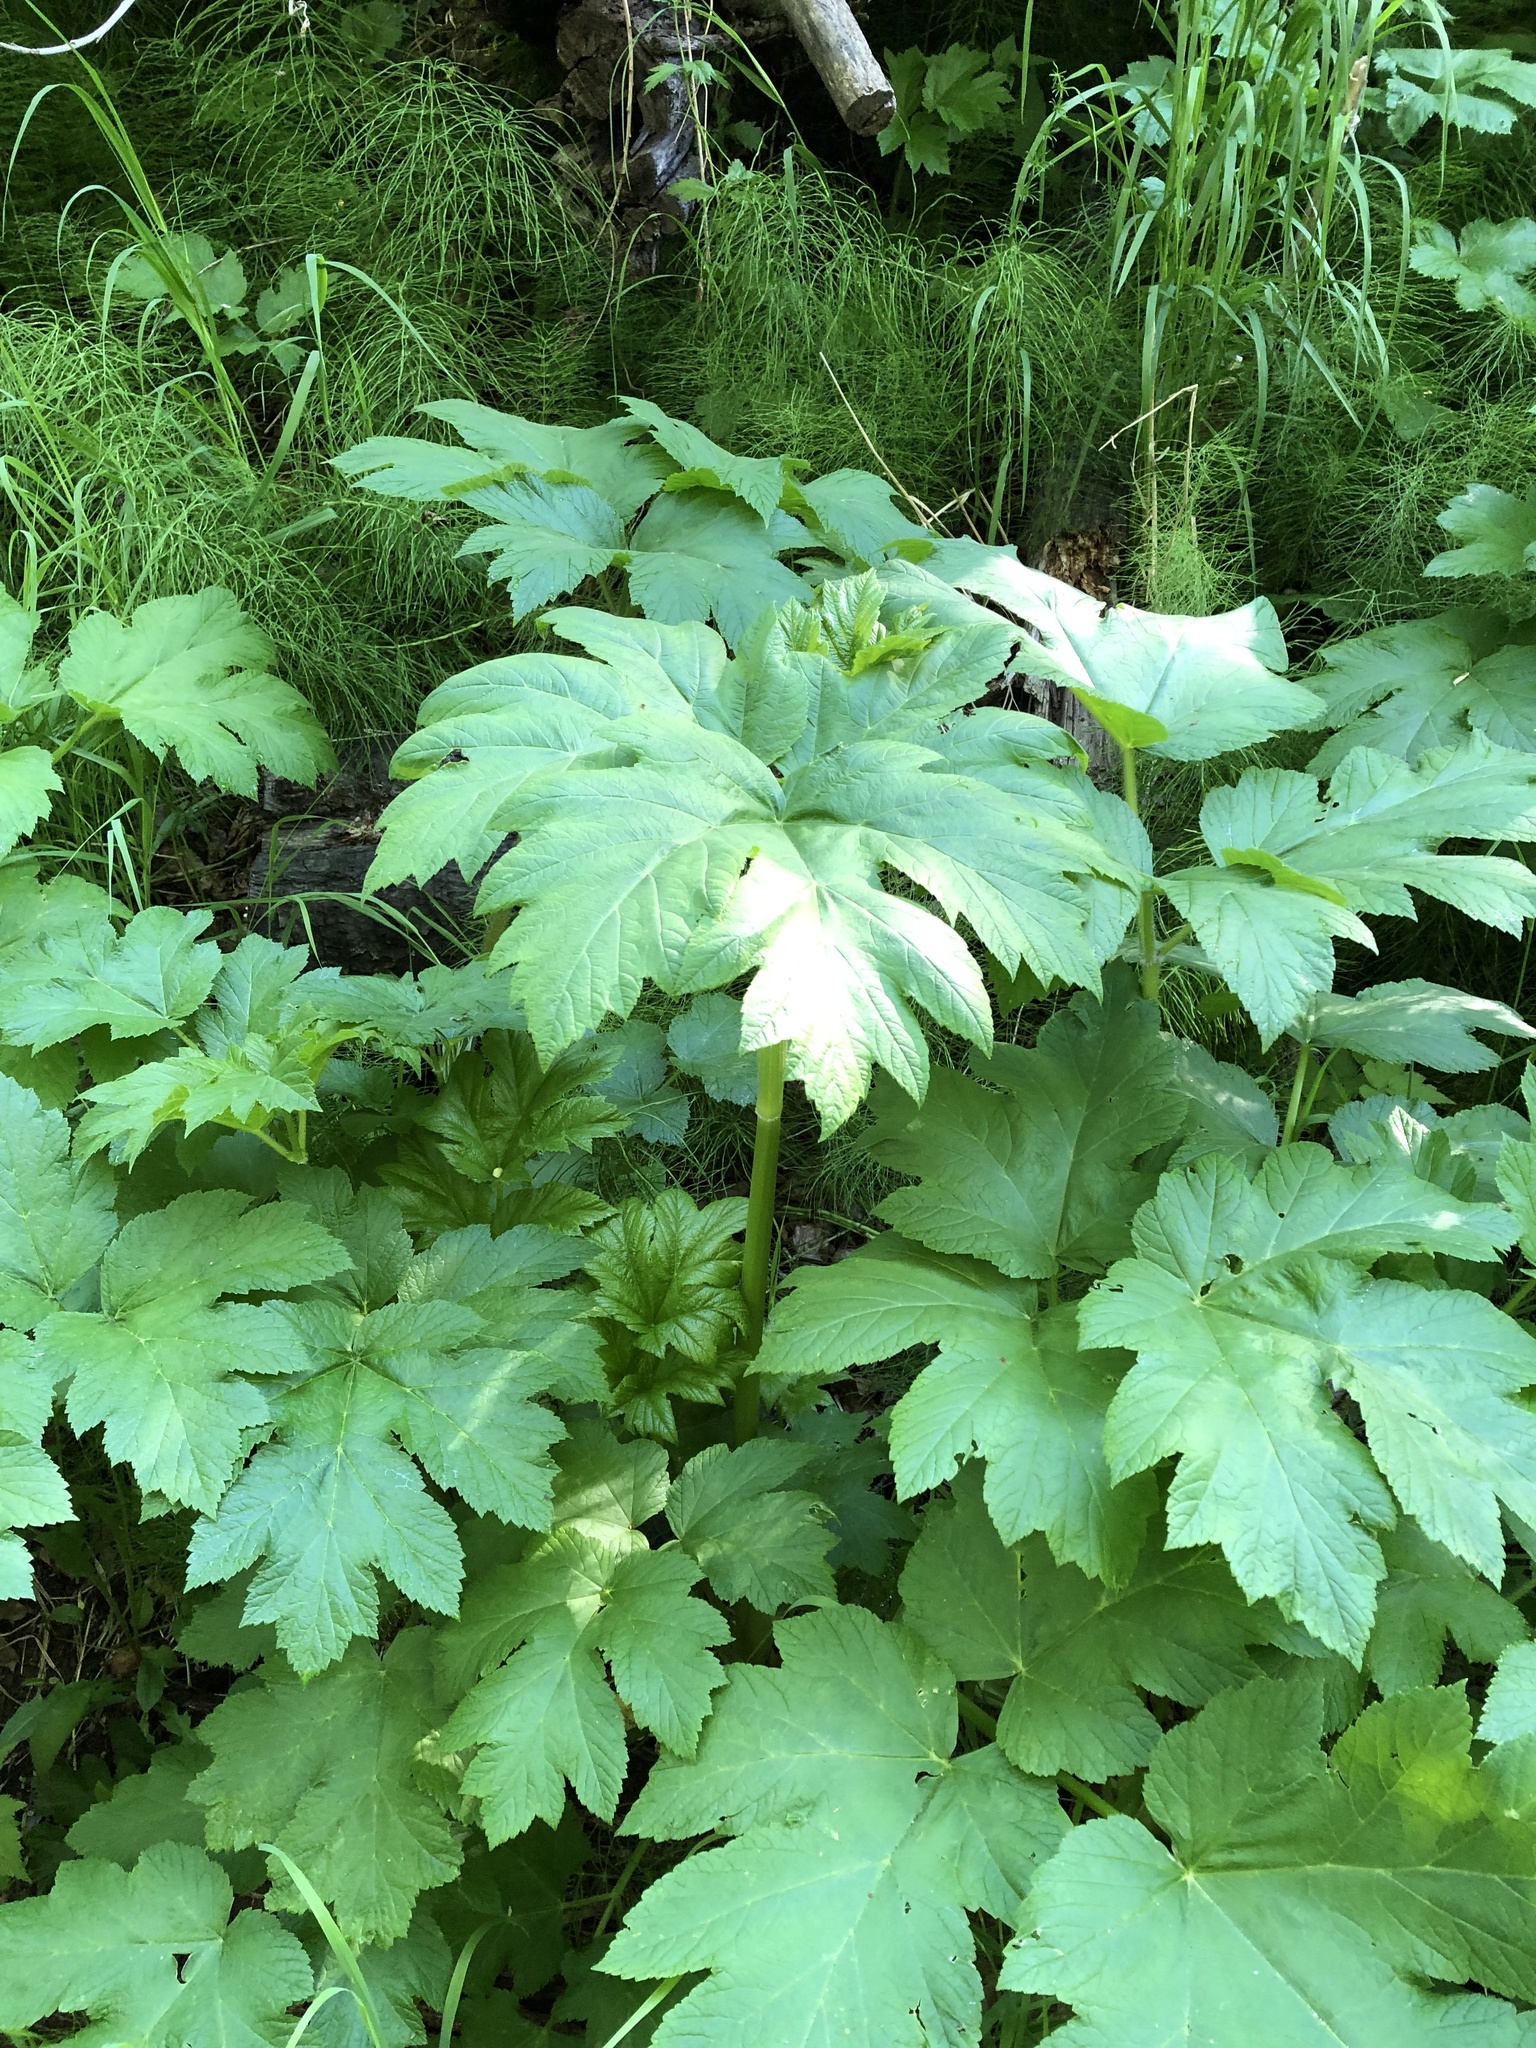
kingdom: Plantae
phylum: Tracheophyta
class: Magnoliopsida
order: Apiales
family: Apiaceae
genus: Heracleum
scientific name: Heracleum maximum
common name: American cow parsnip
